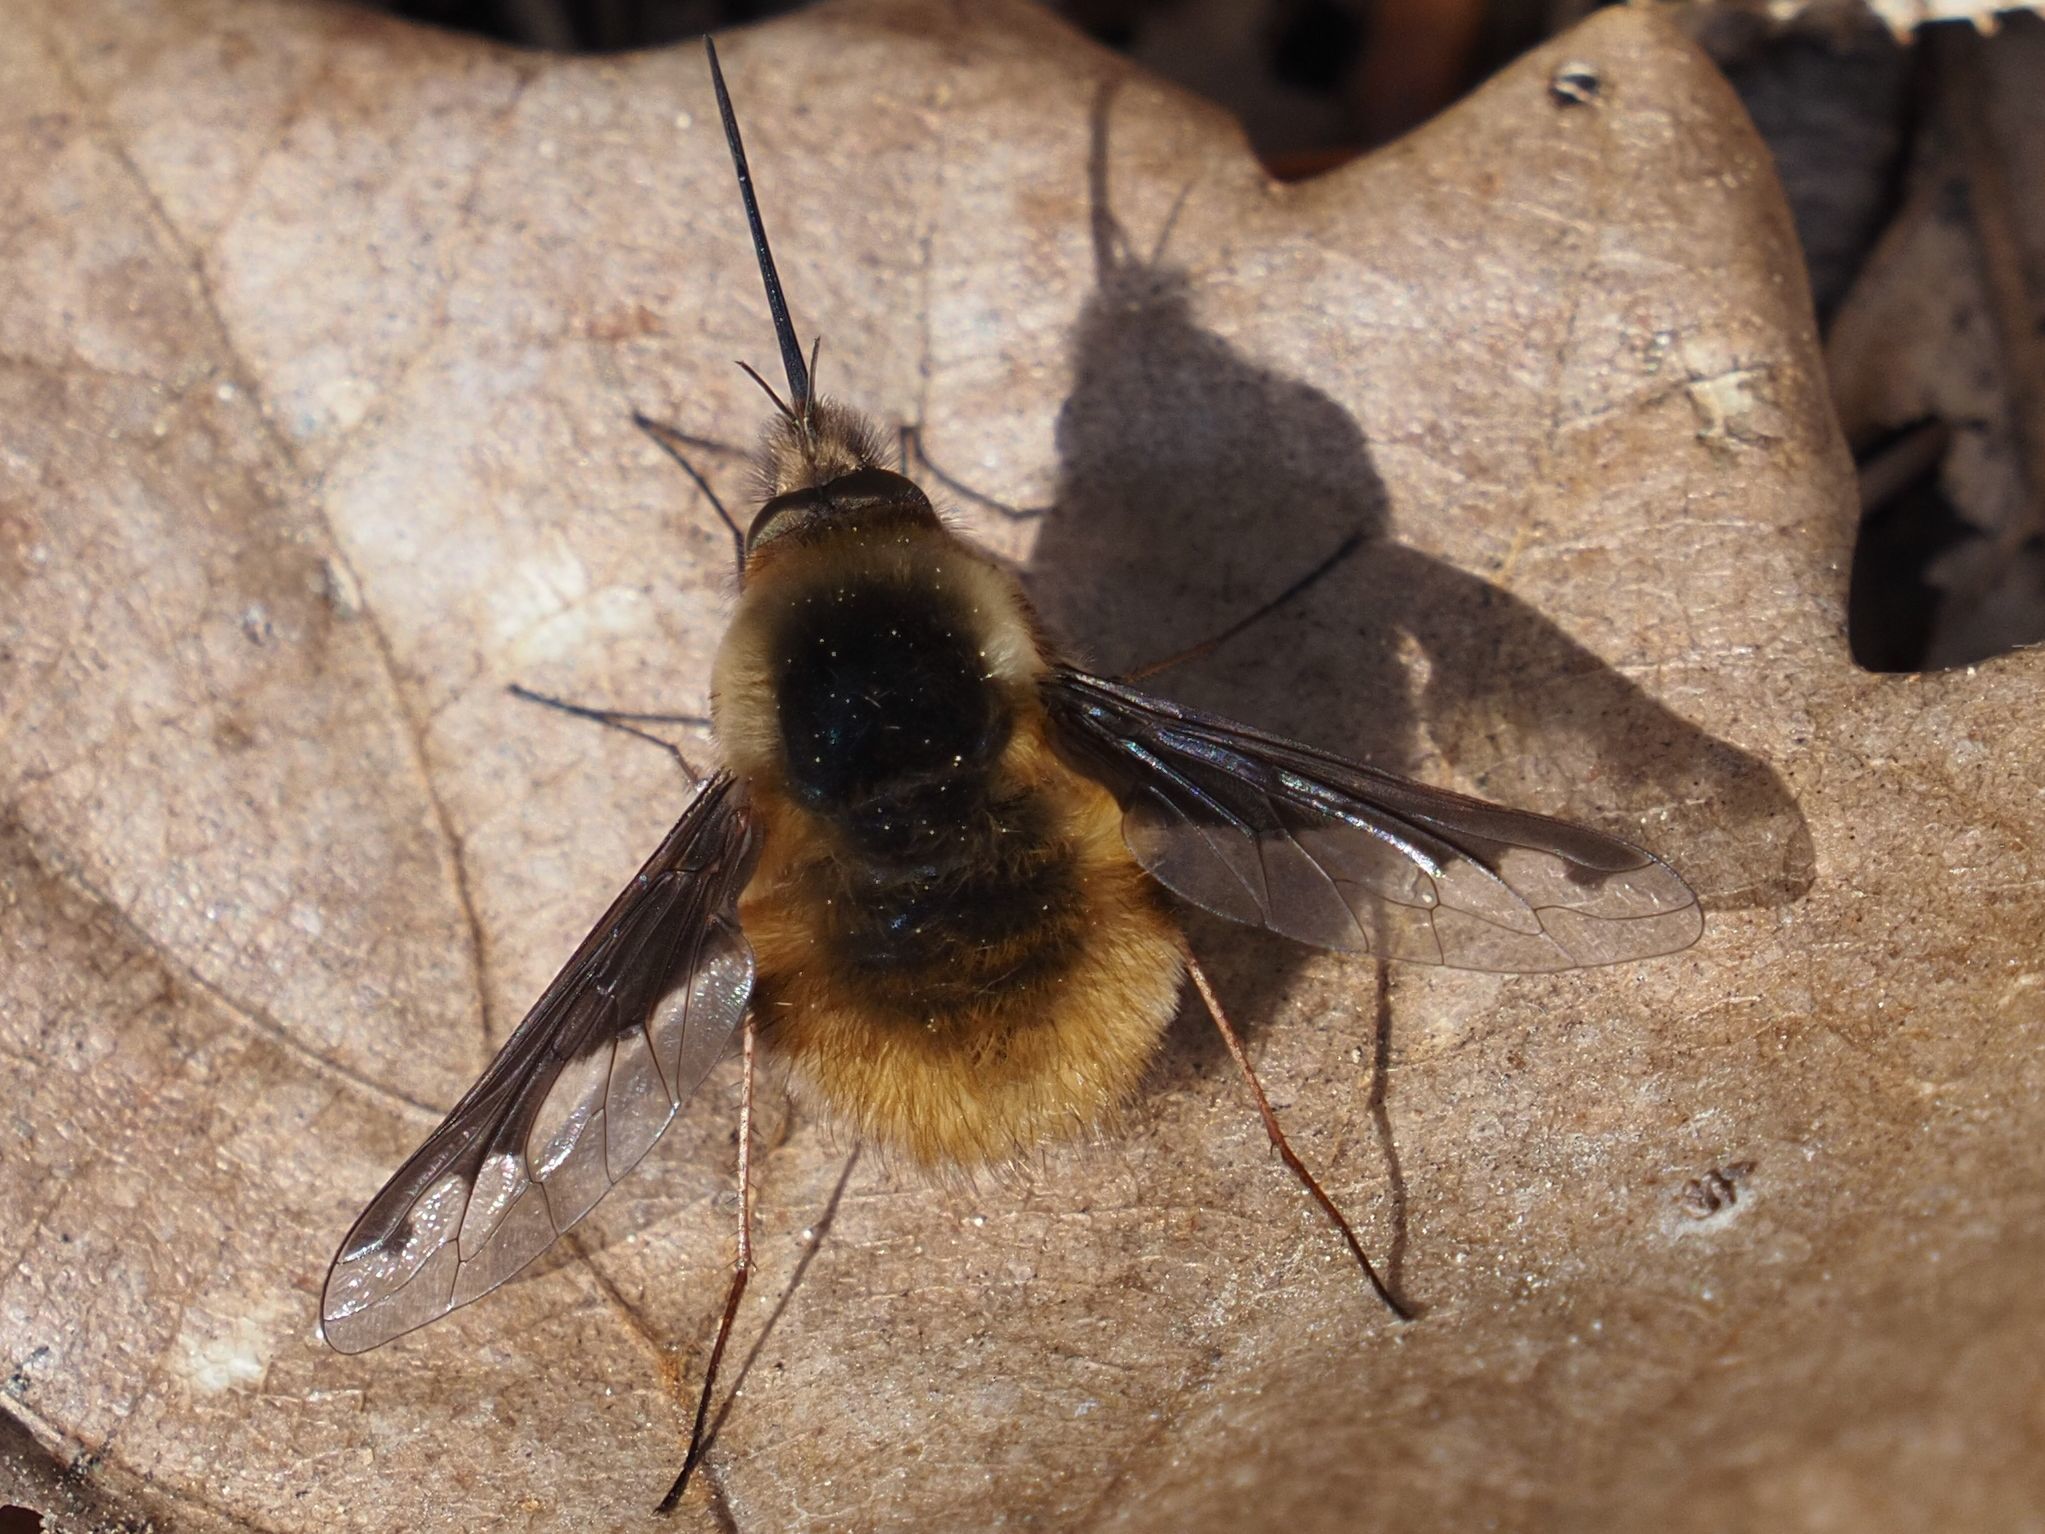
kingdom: Animalia
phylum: Arthropoda
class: Insecta
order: Diptera
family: Bombyliidae
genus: Bombylius
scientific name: Bombylius major
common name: Bee fly
